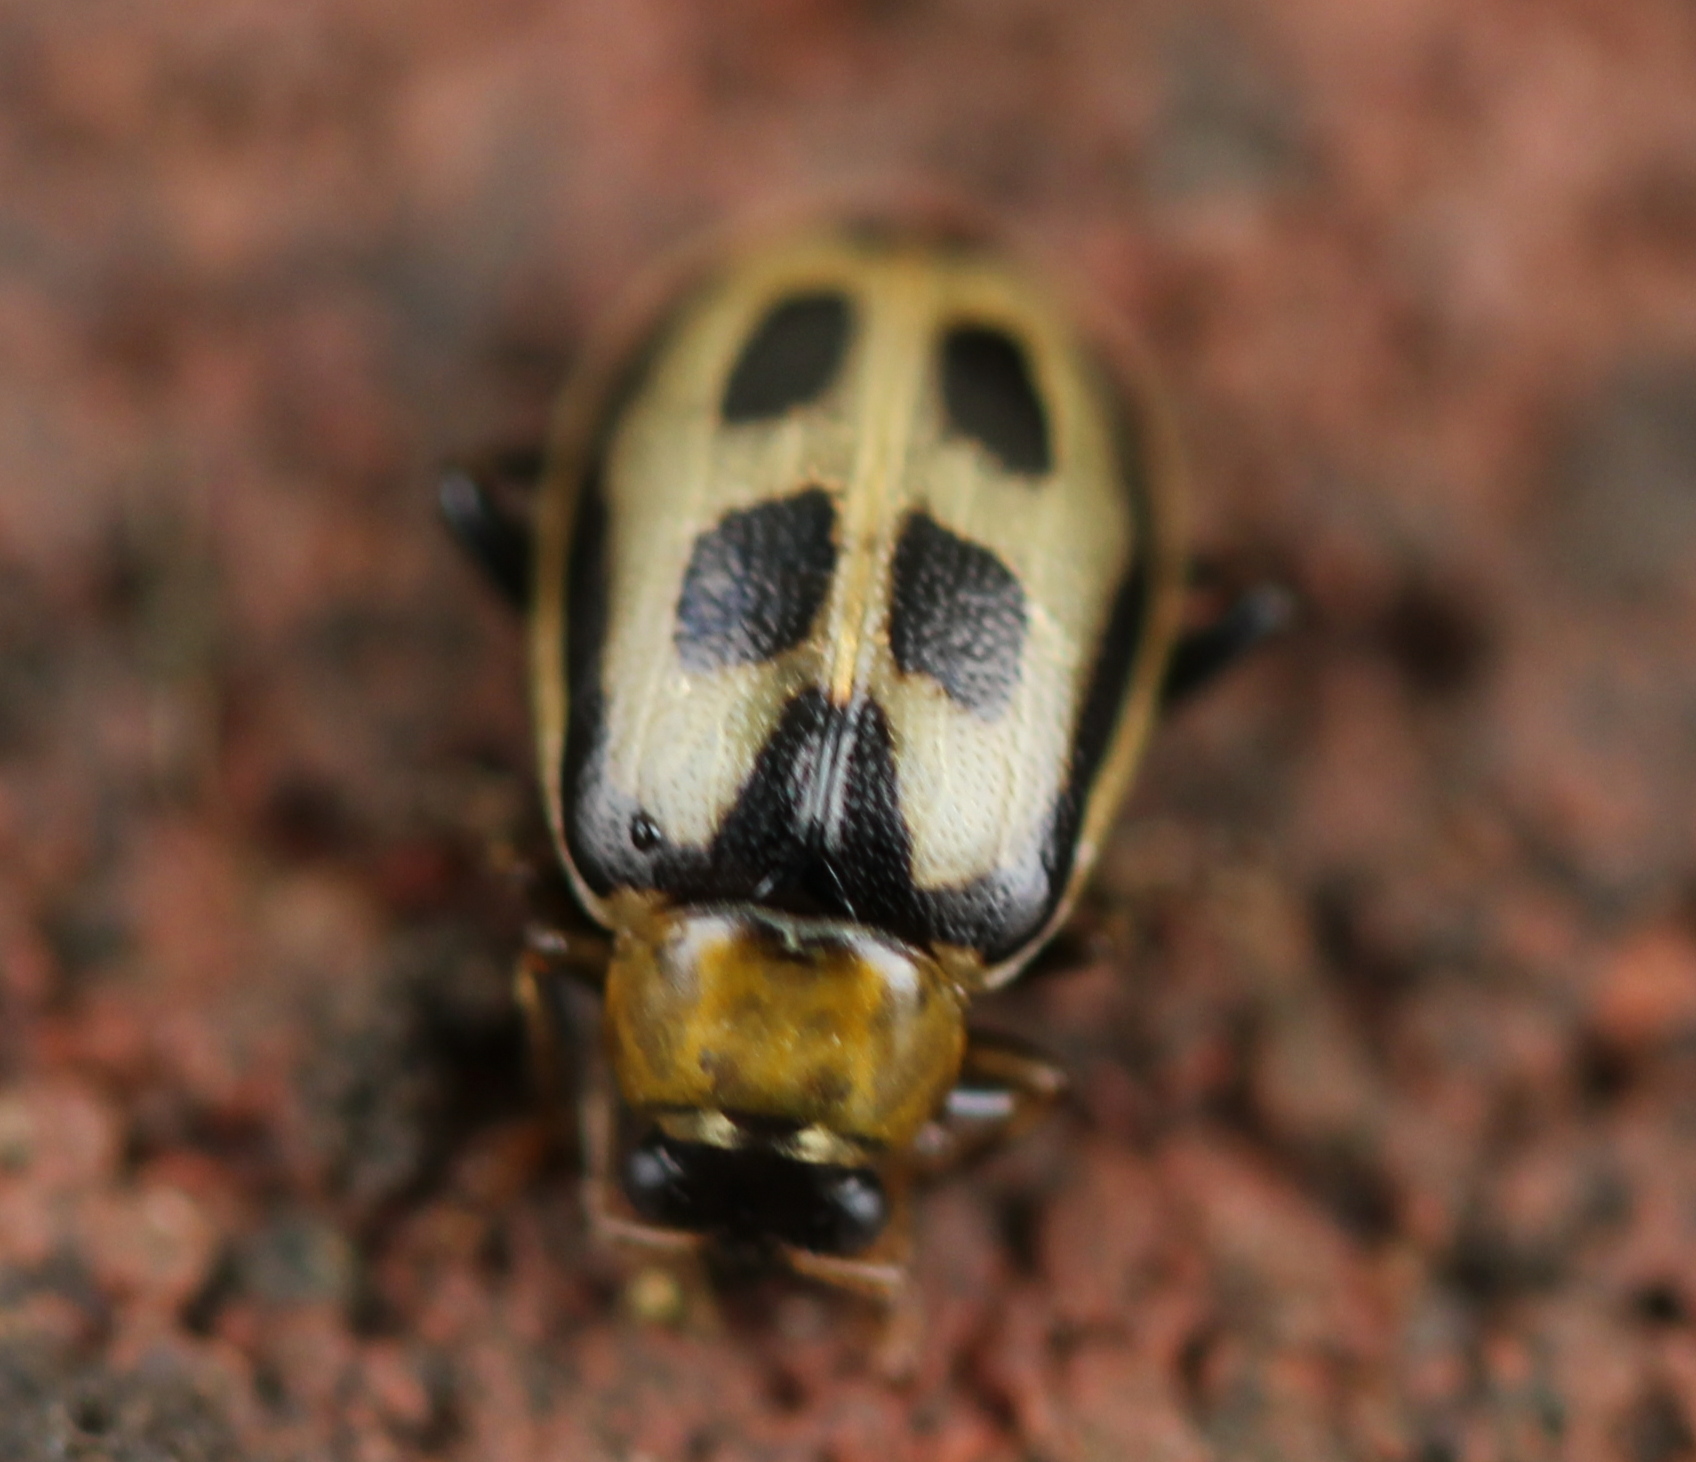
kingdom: Animalia
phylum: Arthropoda
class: Insecta
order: Coleoptera
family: Chrysomelidae
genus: Cerotoma
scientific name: Cerotoma trifurcata
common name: Bean leaf beetle
